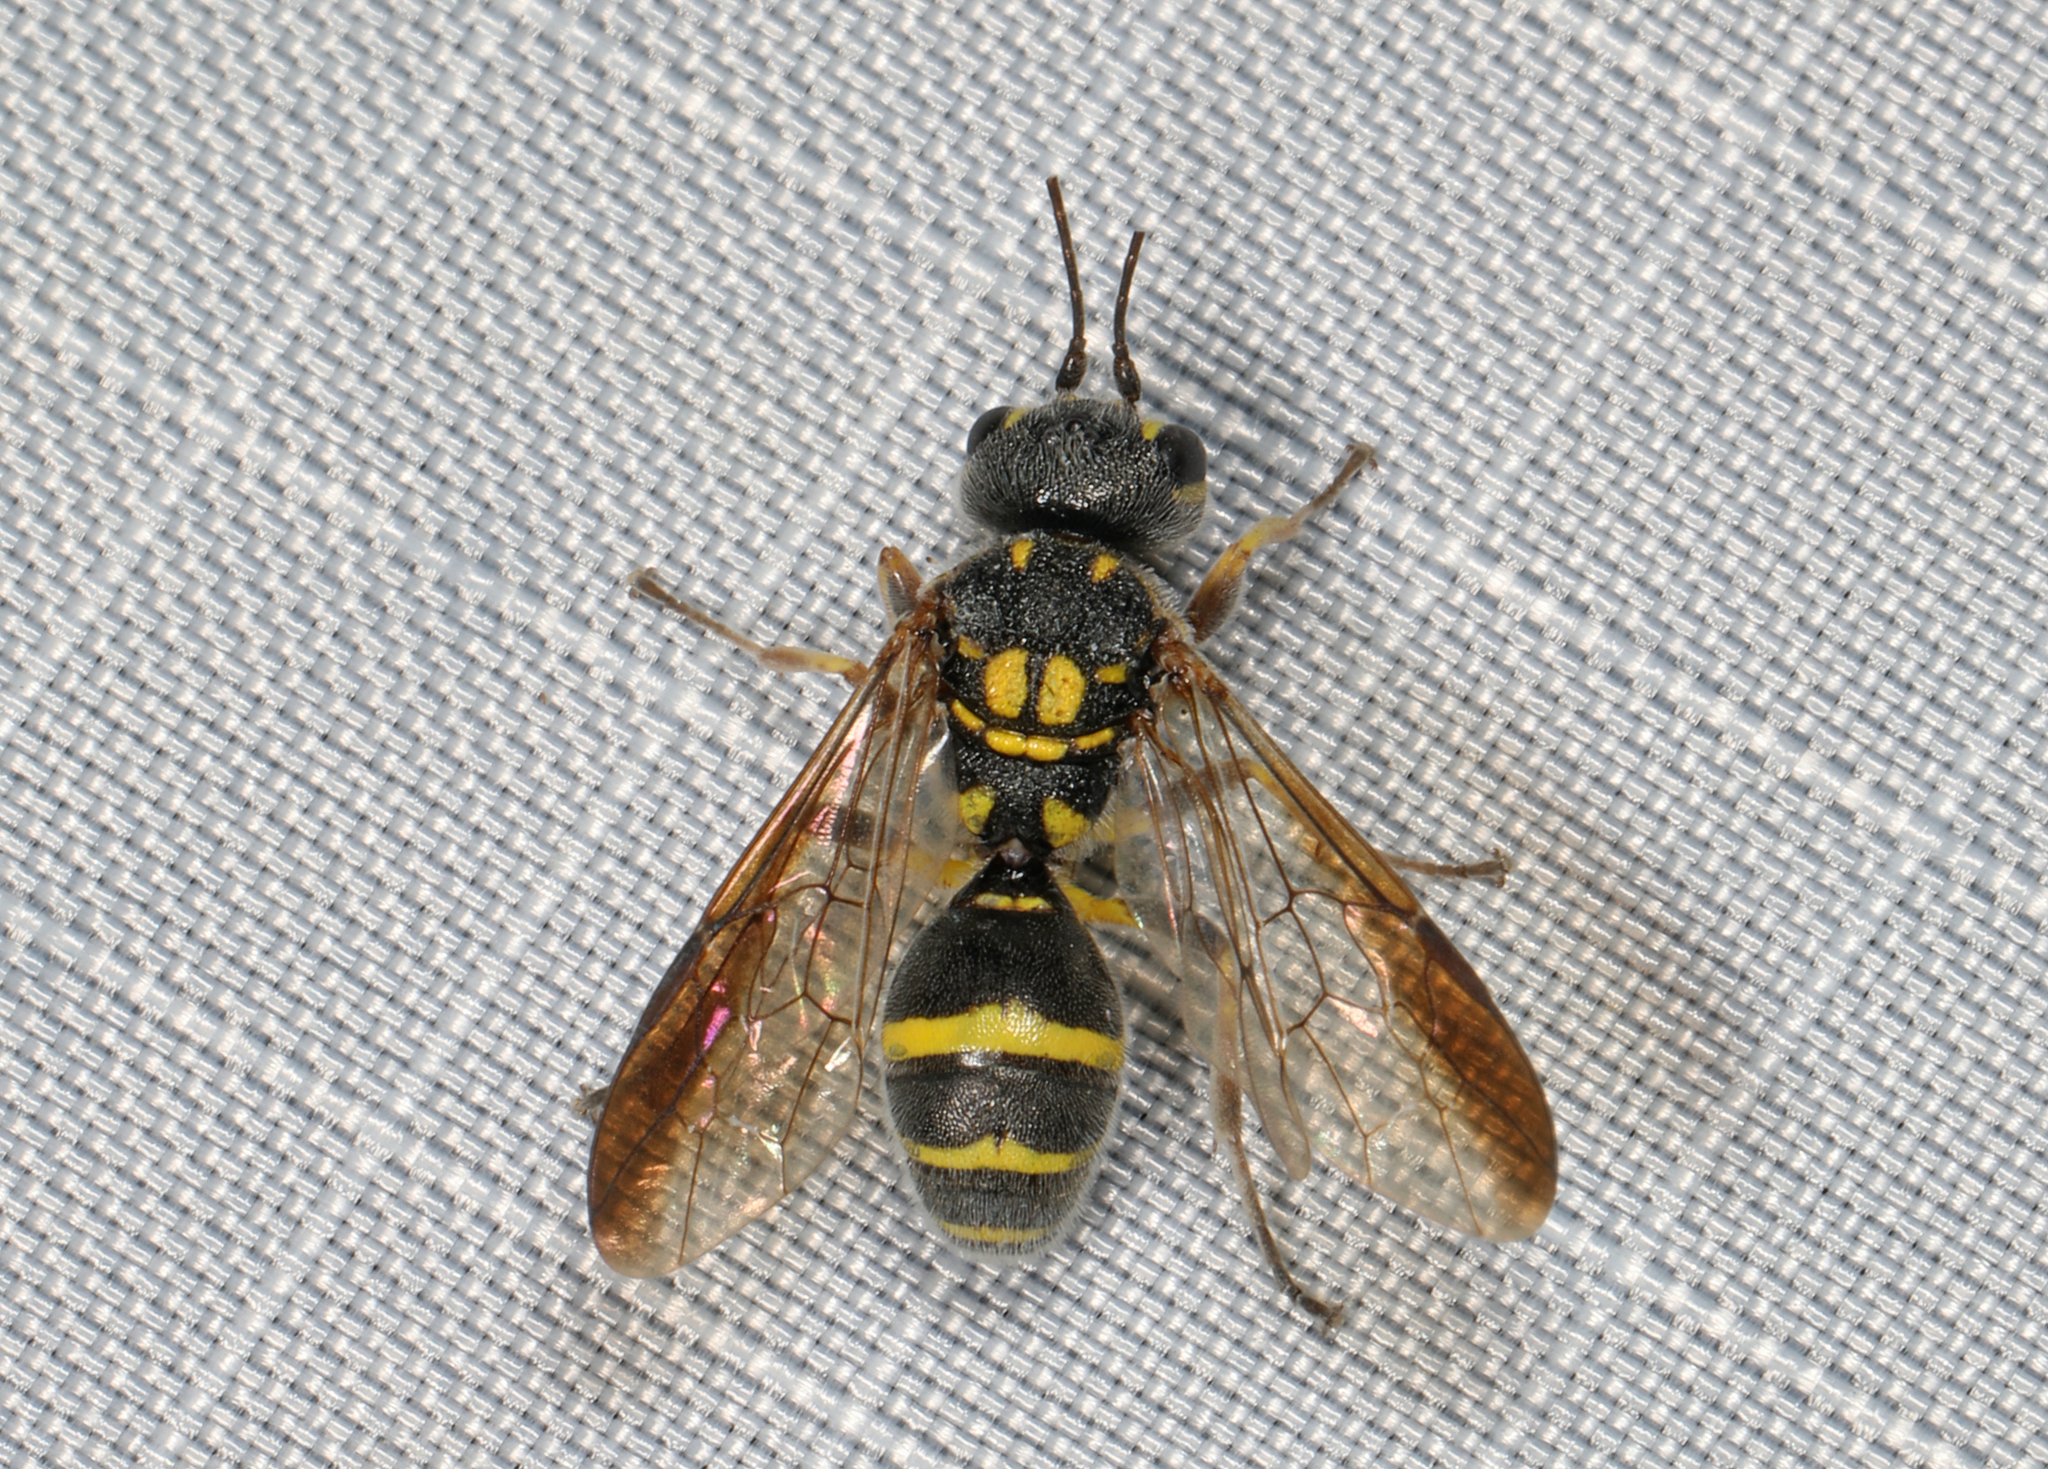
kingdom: Animalia
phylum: Arthropoda
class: Insecta
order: Hymenoptera
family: Trigonalidae
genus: Taeniogonalos
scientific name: Taeniogonalos gundlachii
